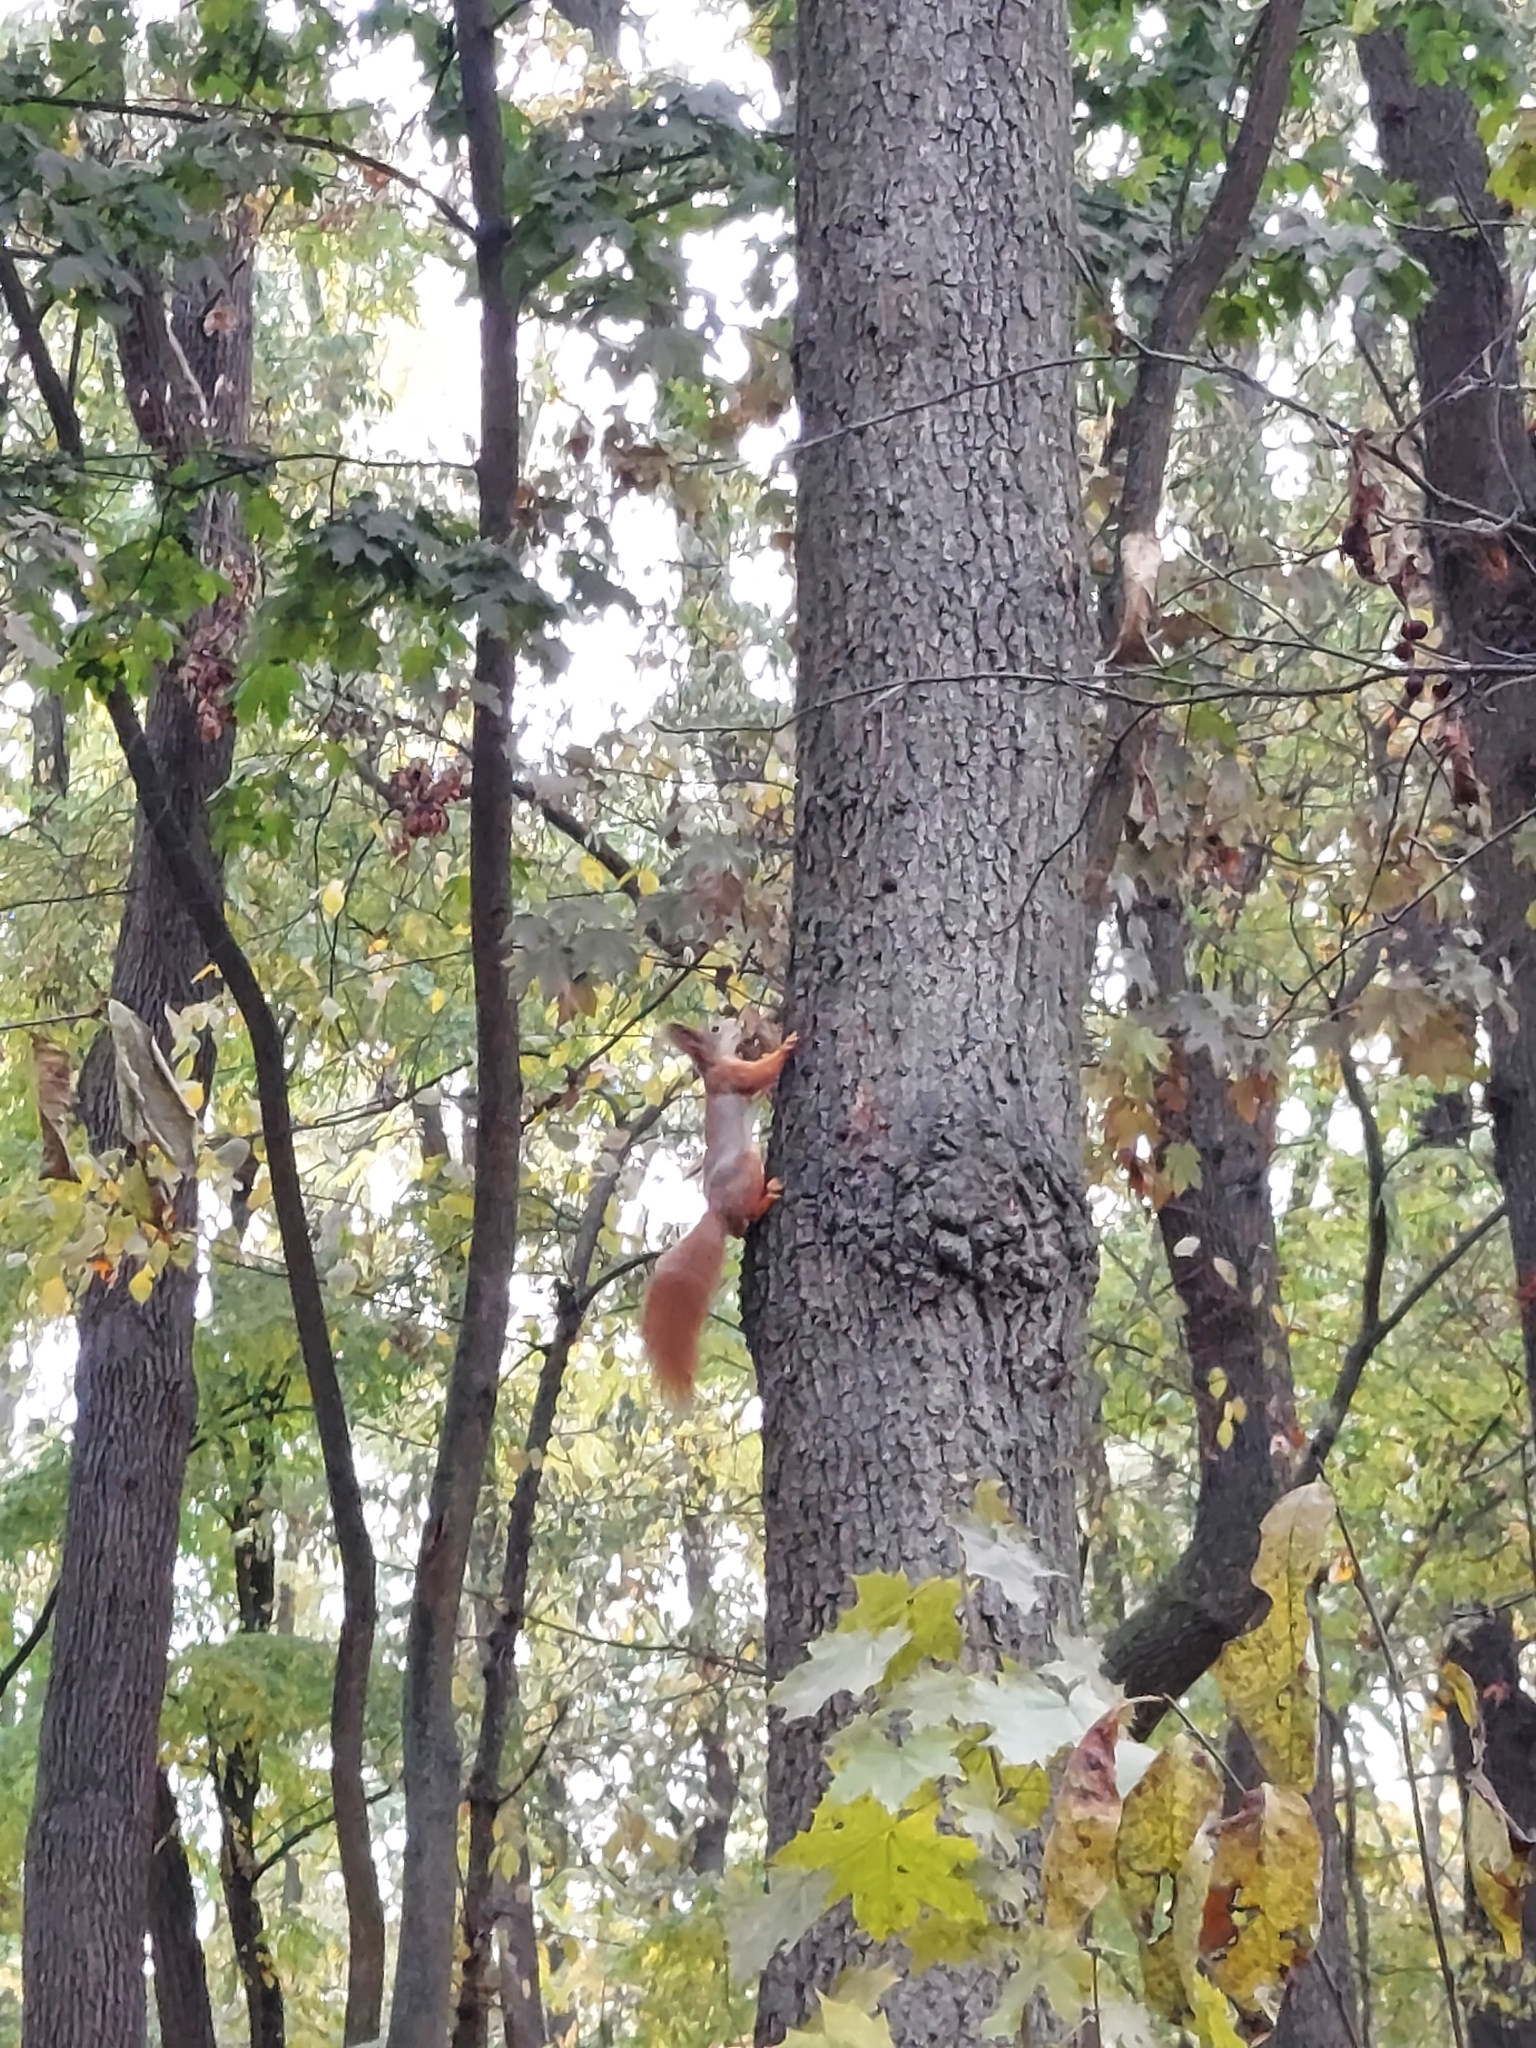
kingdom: Animalia
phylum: Chordata
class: Mammalia
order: Rodentia
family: Sciuridae
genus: Sciurus
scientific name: Sciurus vulgaris
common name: Eurasian red squirrel
